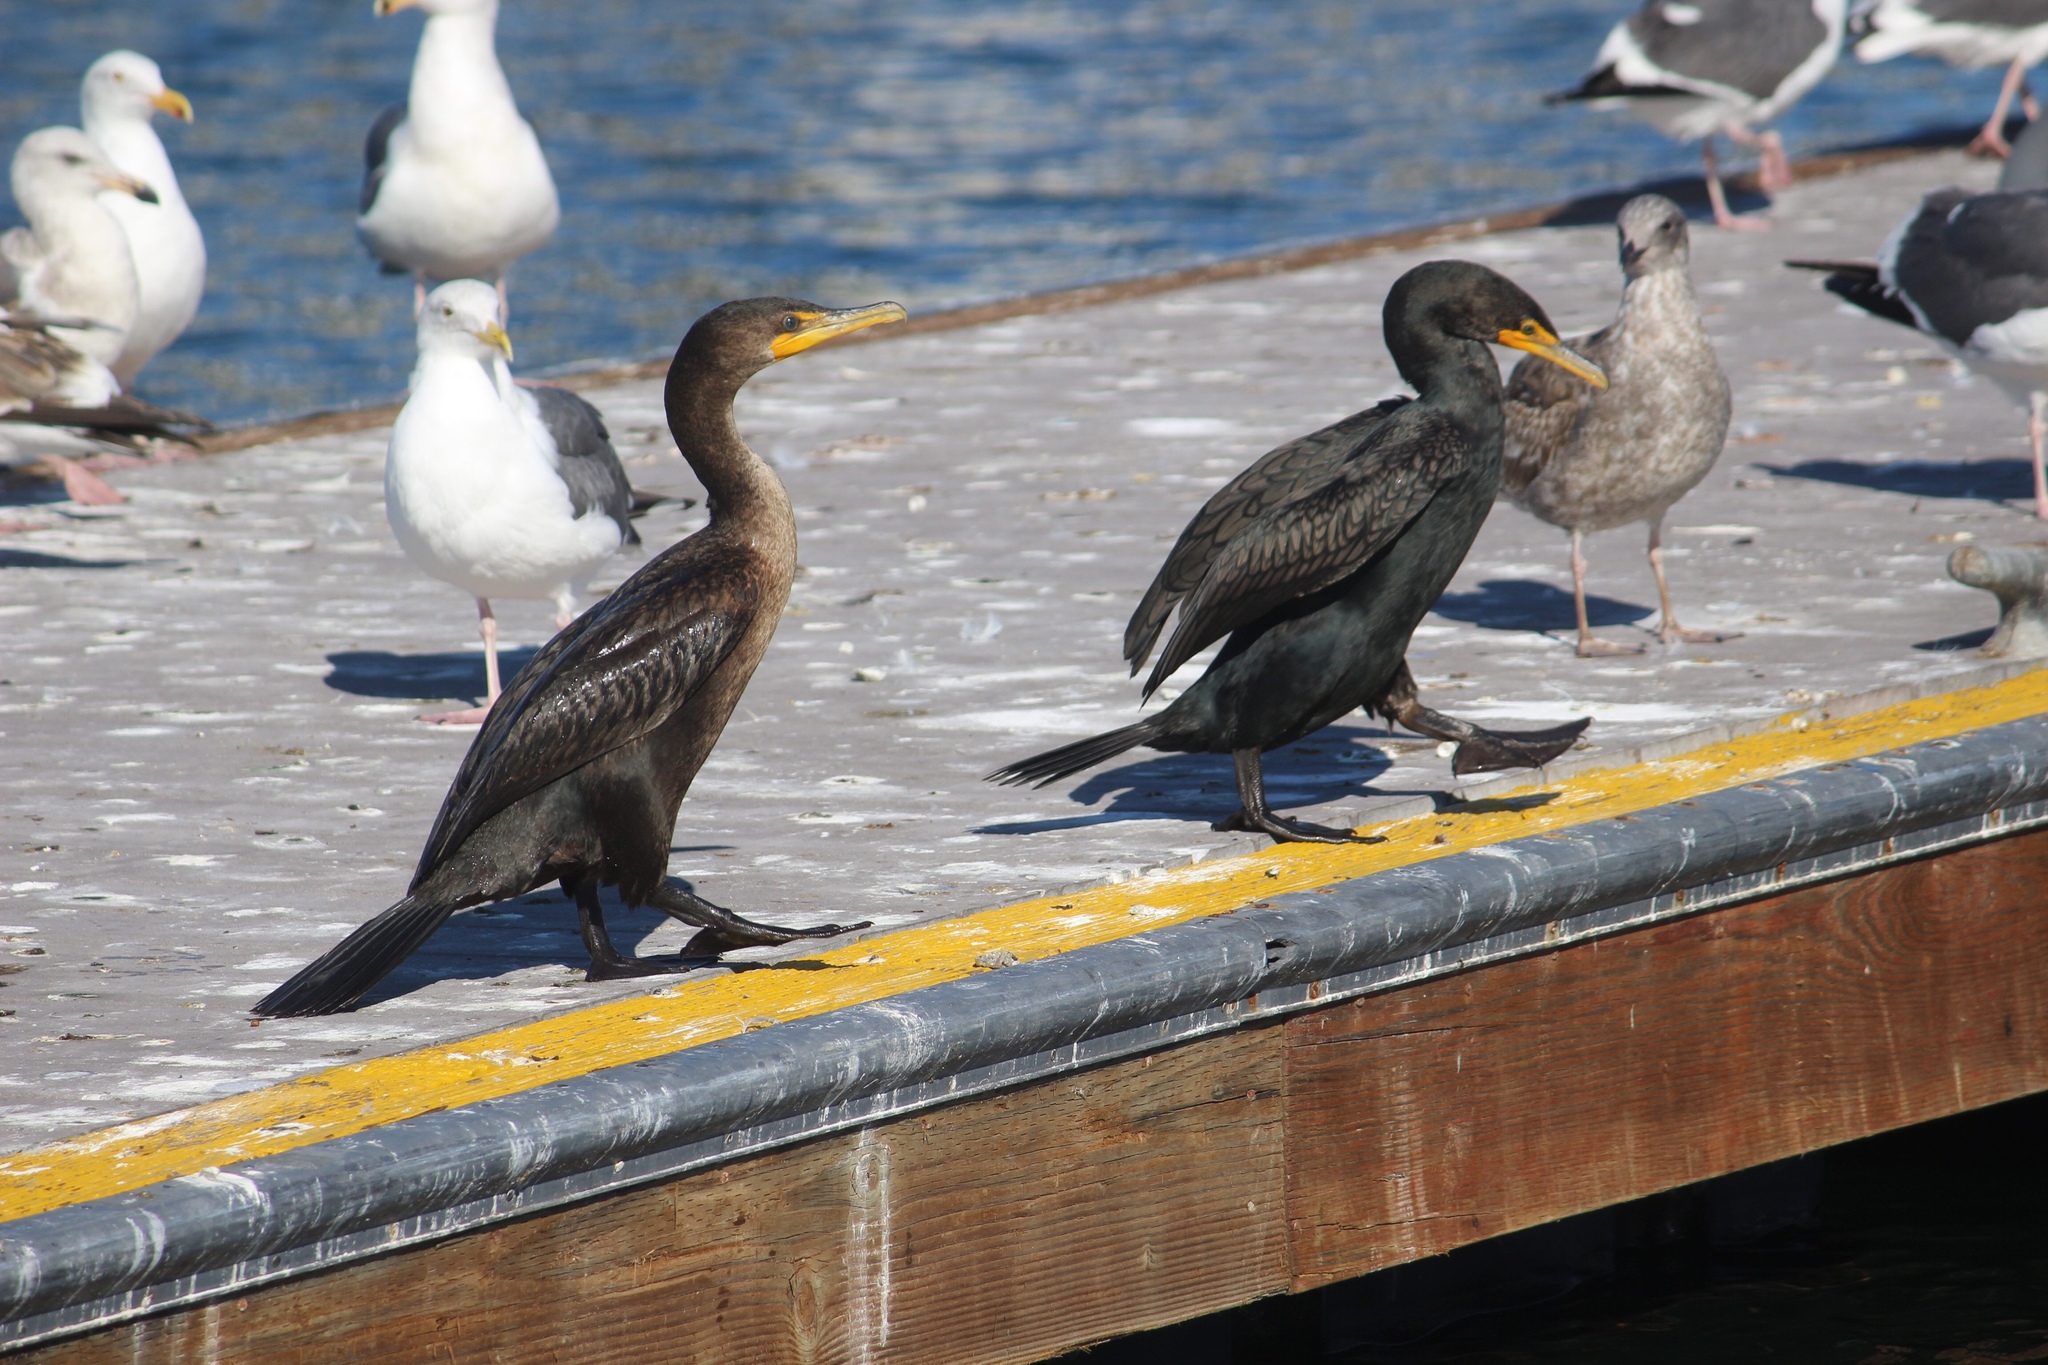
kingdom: Animalia
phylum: Chordata
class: Aves
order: Suliformes
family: Phalacrocoracidae
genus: Phalacrocorax
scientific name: Phalacrocorax auritus
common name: Double-crested cormorant
